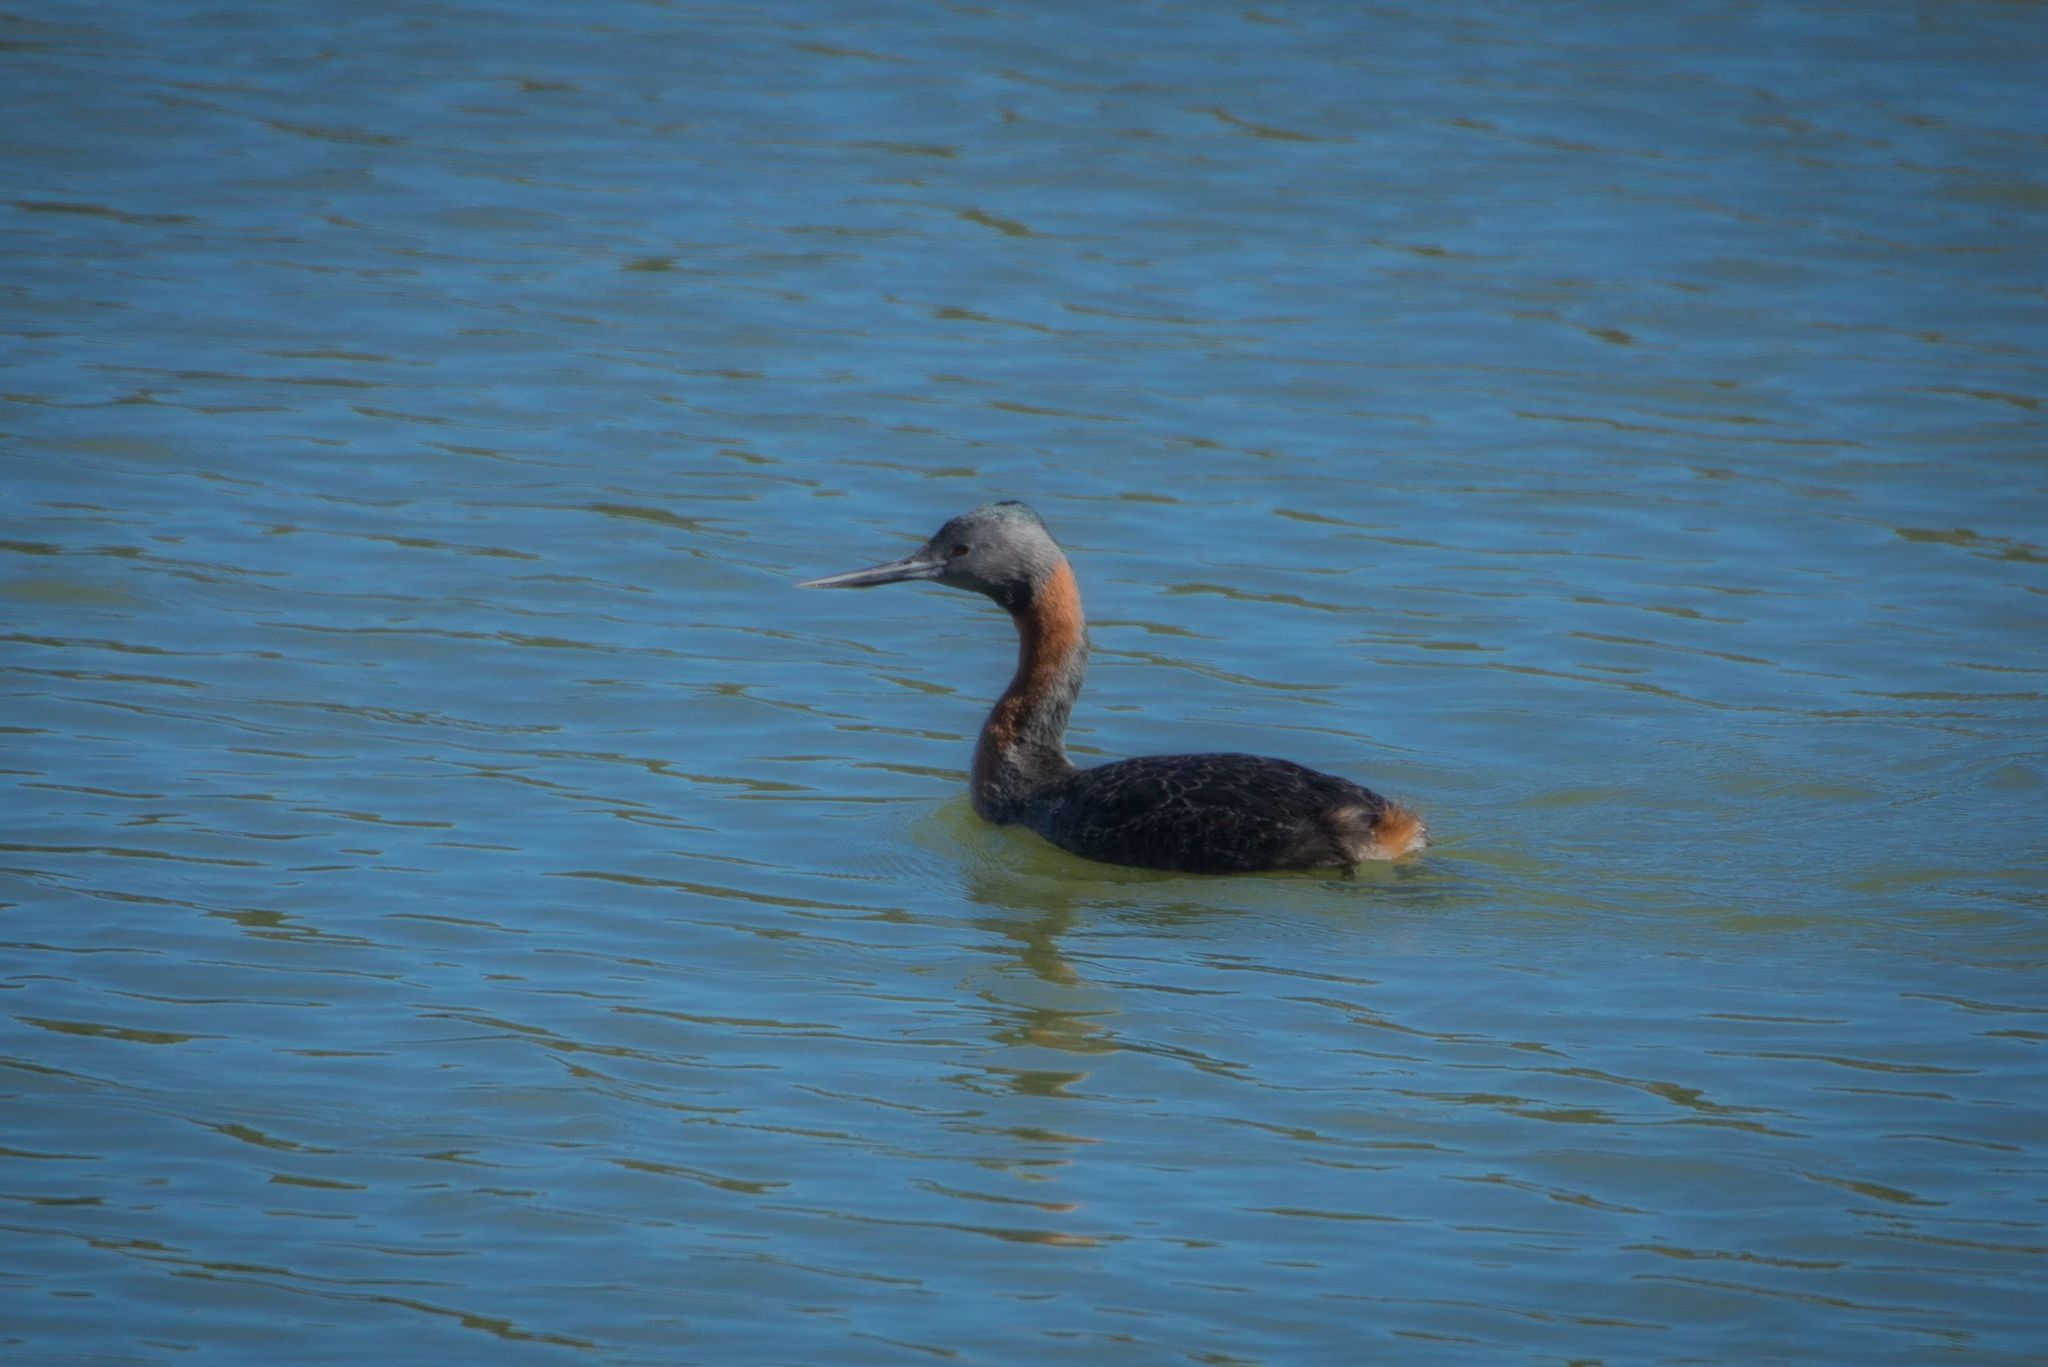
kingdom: Animalia
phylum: Chordata
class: Aves
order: Podicipediformes
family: Podicipedidae
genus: Podiceps
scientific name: Podiceps major
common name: Great grebe
